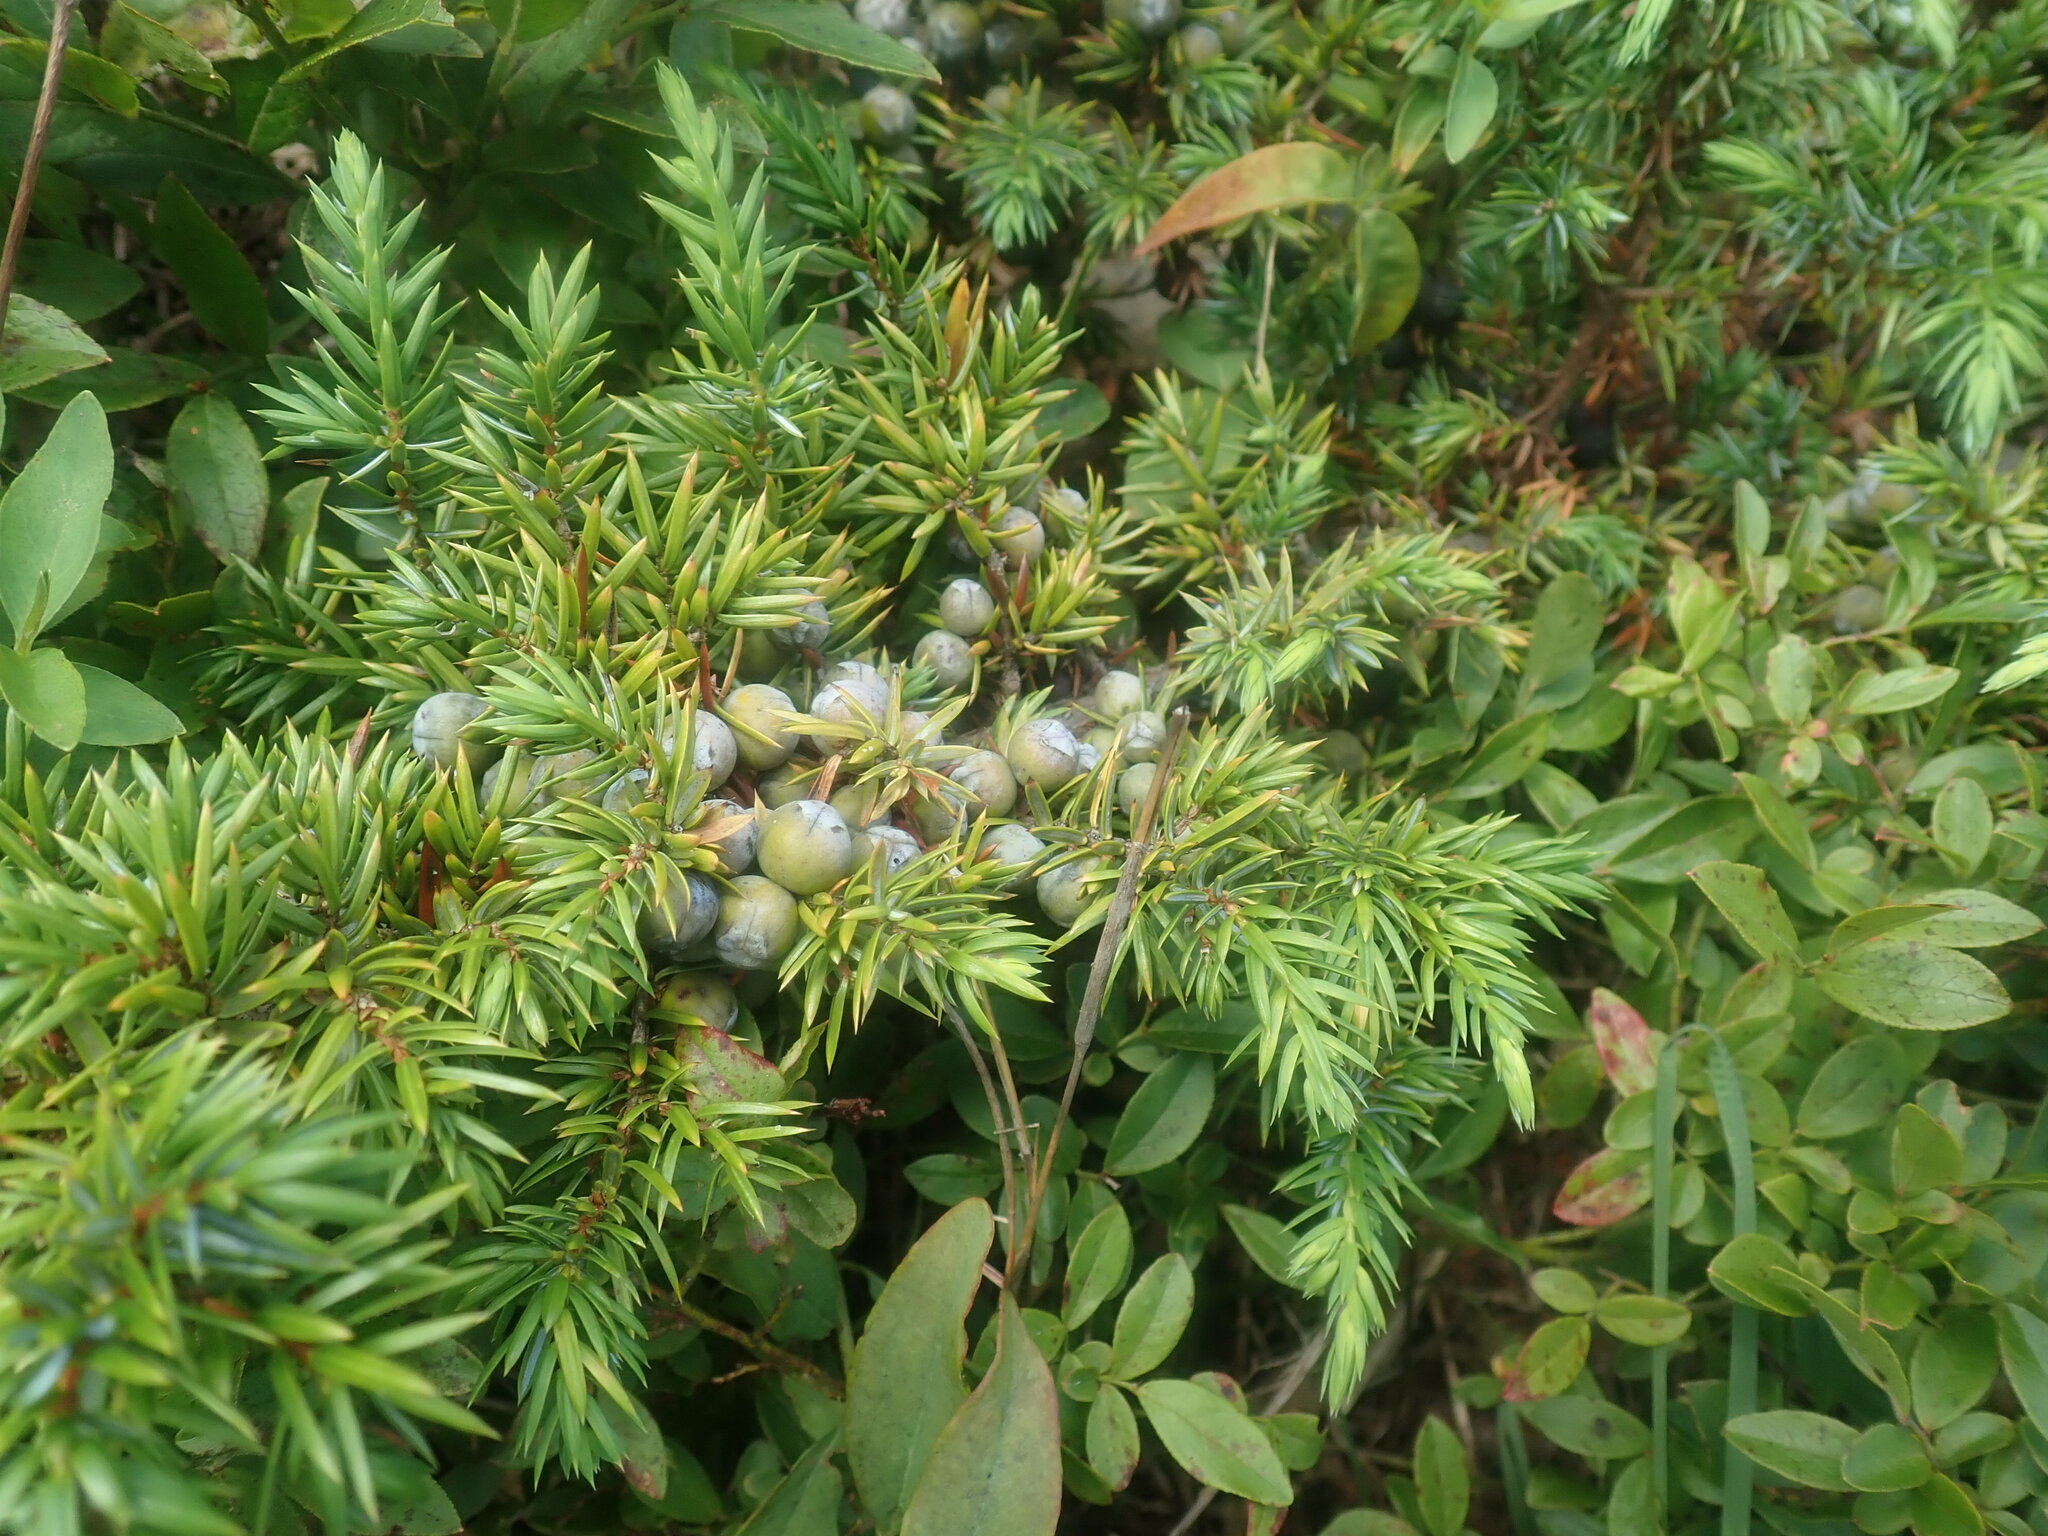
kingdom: Plantae
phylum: Tracheophyta
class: Pinopsida
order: Pinales
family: Cupressaceae
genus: Juniperus
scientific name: Juniperus communis
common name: Common juniper
